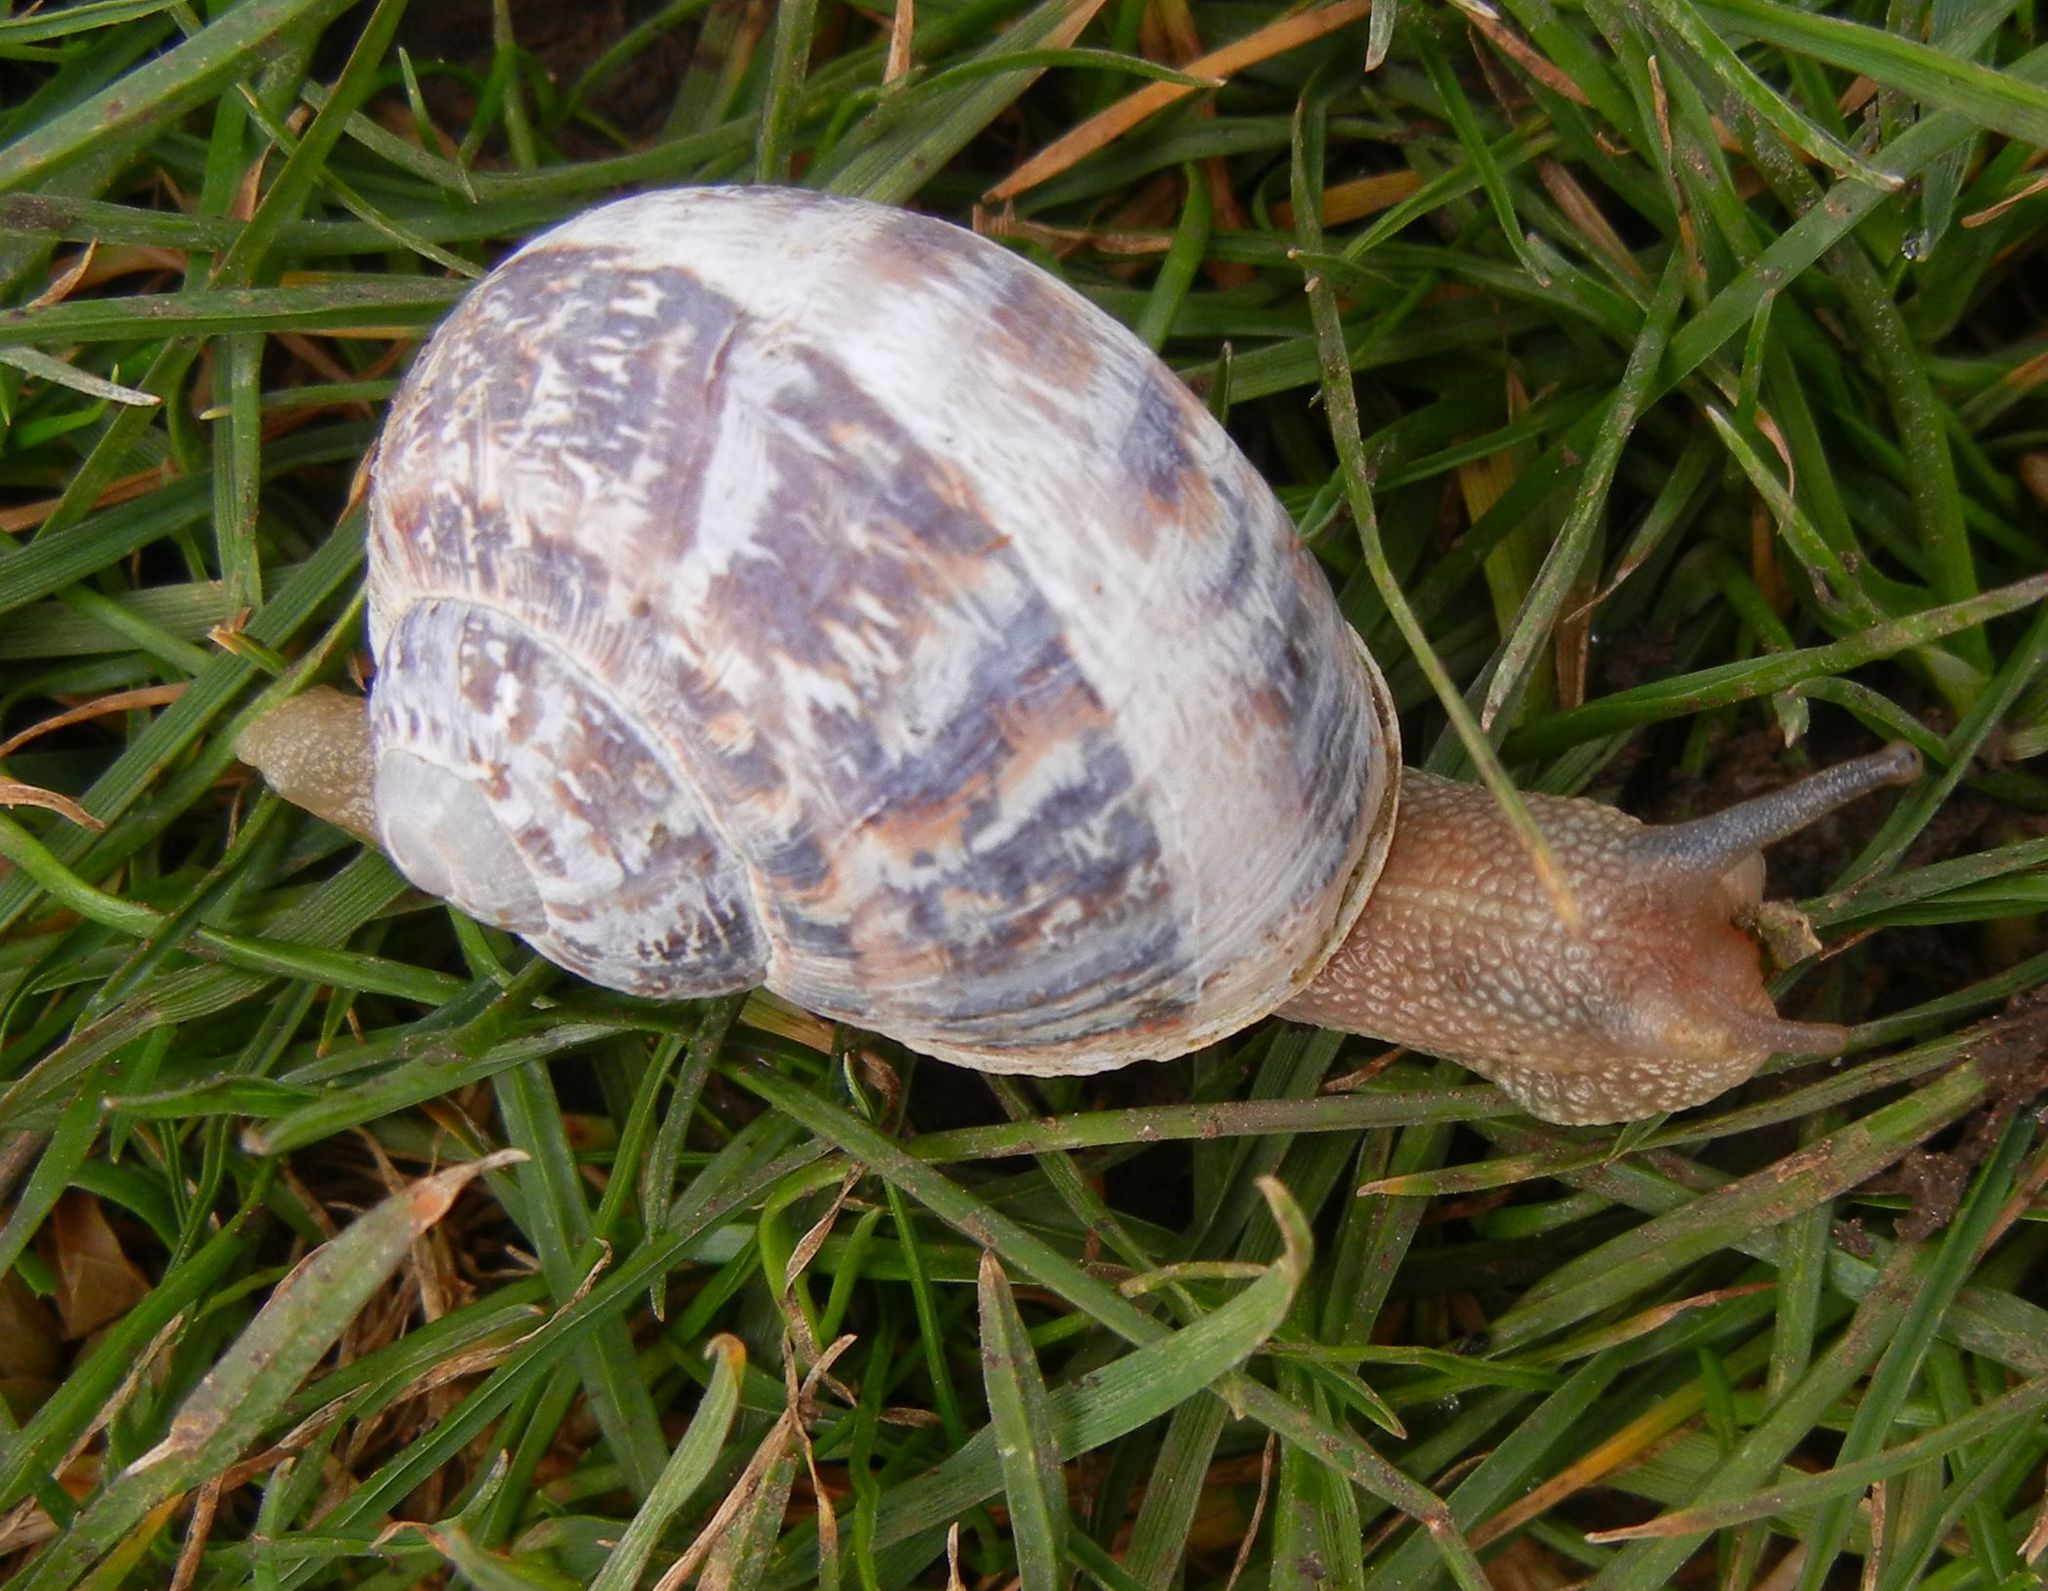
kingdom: Animalia
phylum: Mollusca
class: Gastropoda
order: Stylommatophora
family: Helicidae
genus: Cornu
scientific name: Cornu aspersum
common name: Brown garden snail
